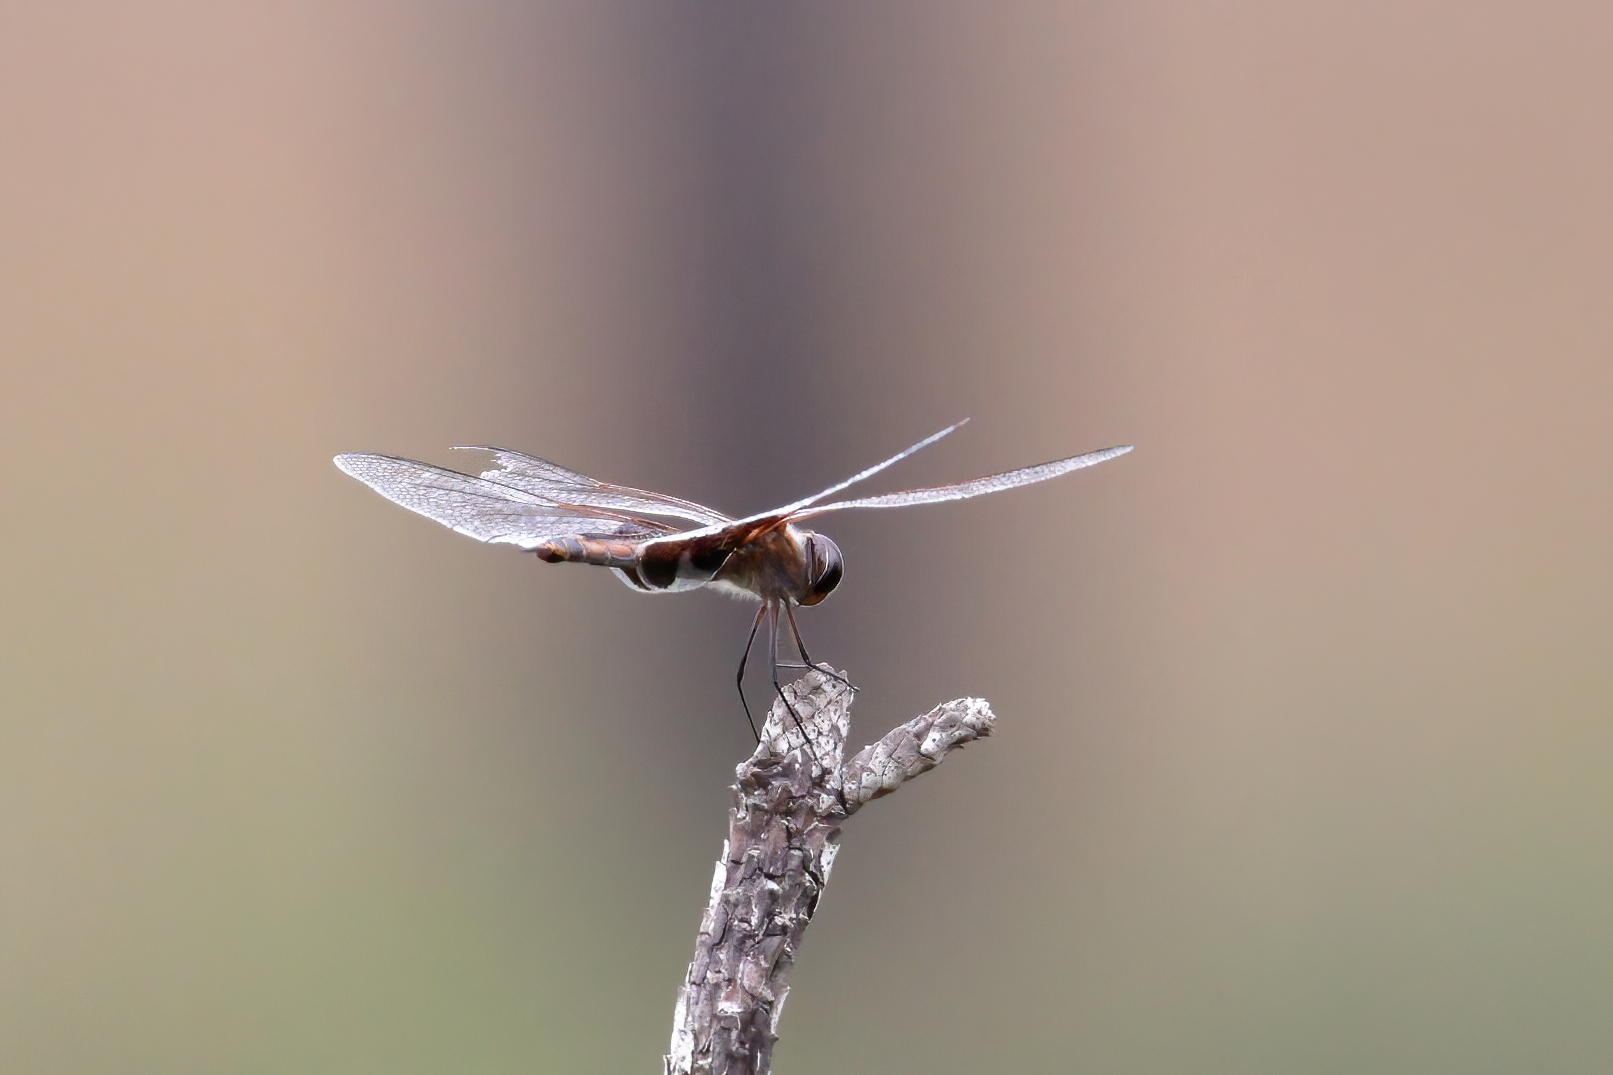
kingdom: Animalia
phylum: Arthropoda
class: Insecta
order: Odonata
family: Libellulidae
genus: Tramea
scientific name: Tramea carolina
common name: Carolina saddlebags
